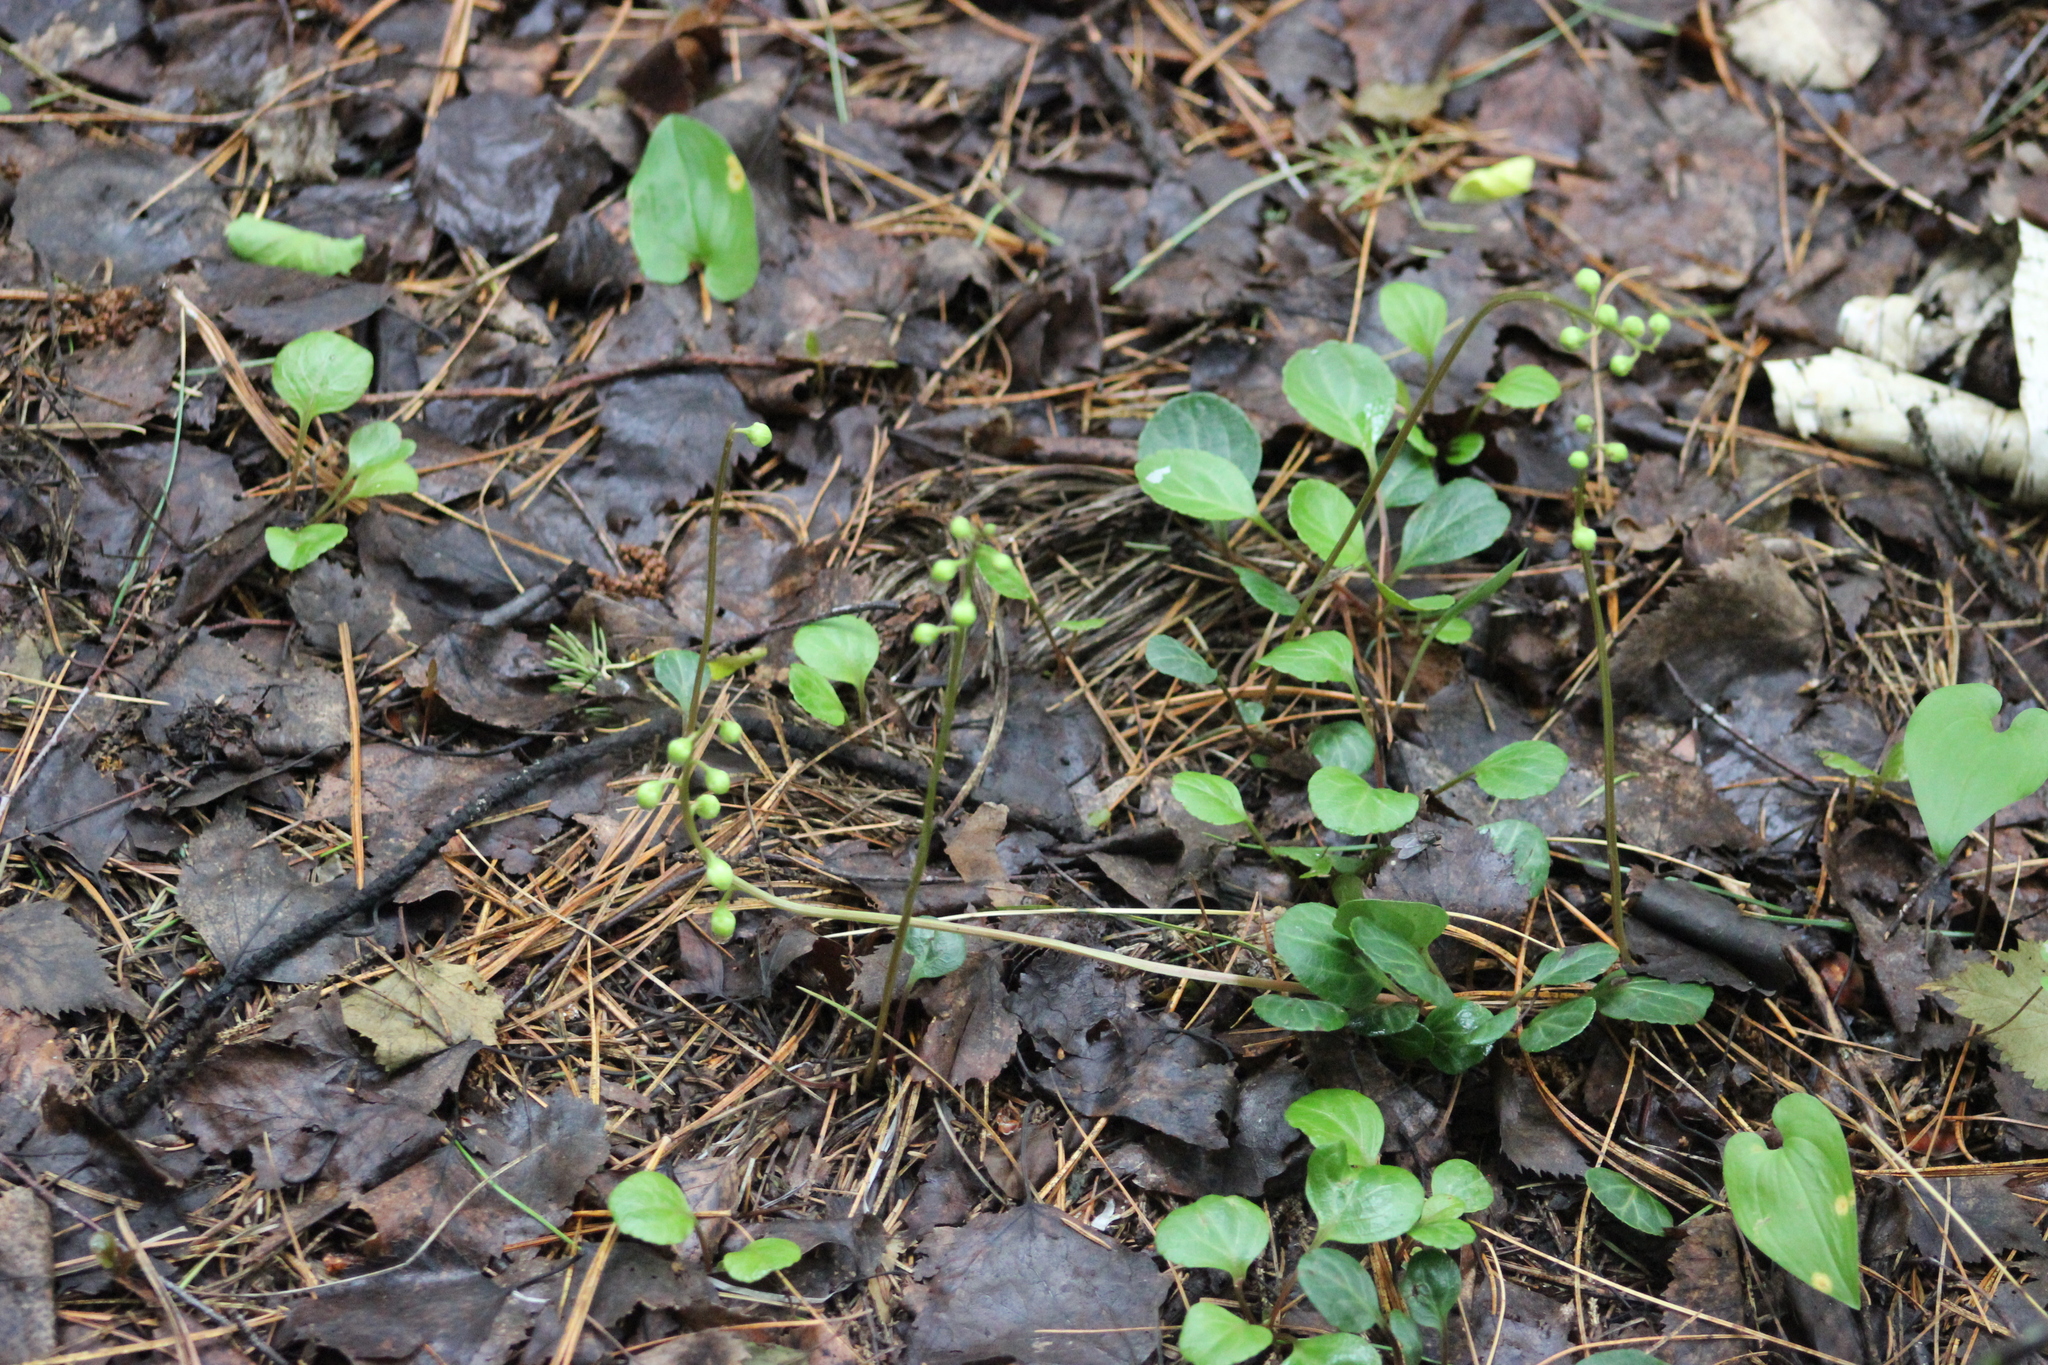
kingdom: Plantae
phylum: Tracheophyta
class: Magnoliopsida
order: Ericales
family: Ericaceae
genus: Pyrola
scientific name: Pyrola chlorantha
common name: Green wintergreen
